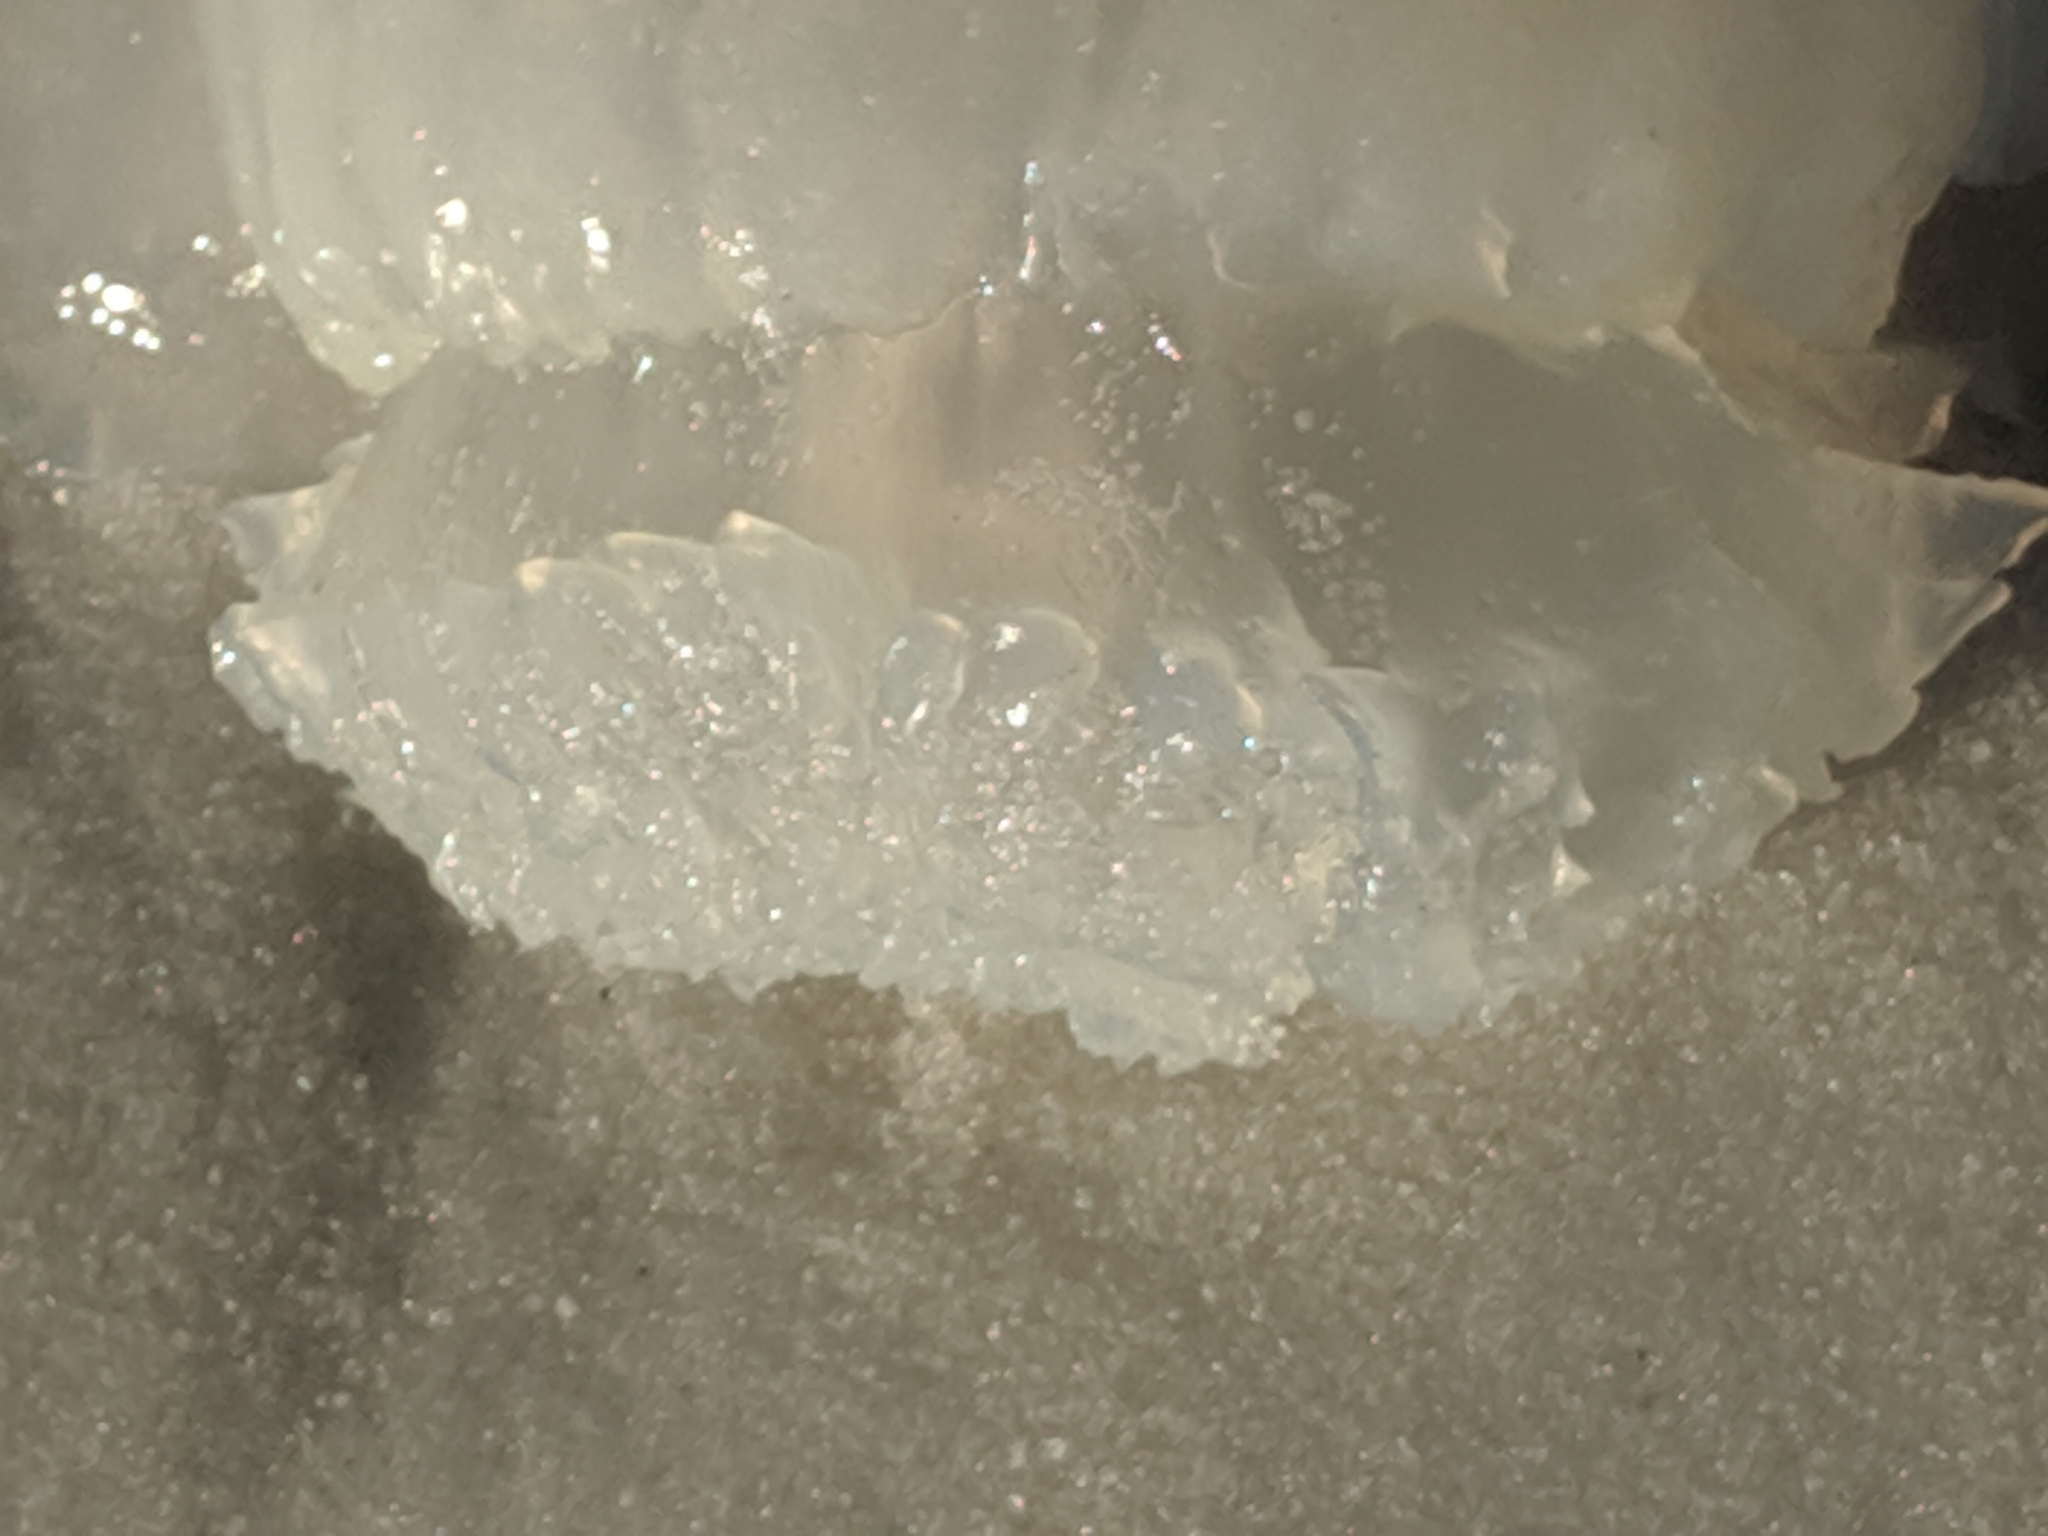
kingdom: Animalia
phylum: Cnidaria
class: Scyphozoa
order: Rhizostomeae
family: Stomolophidae
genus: Stomolophus
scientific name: Stomolophus meleagris
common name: Cabbagehead
